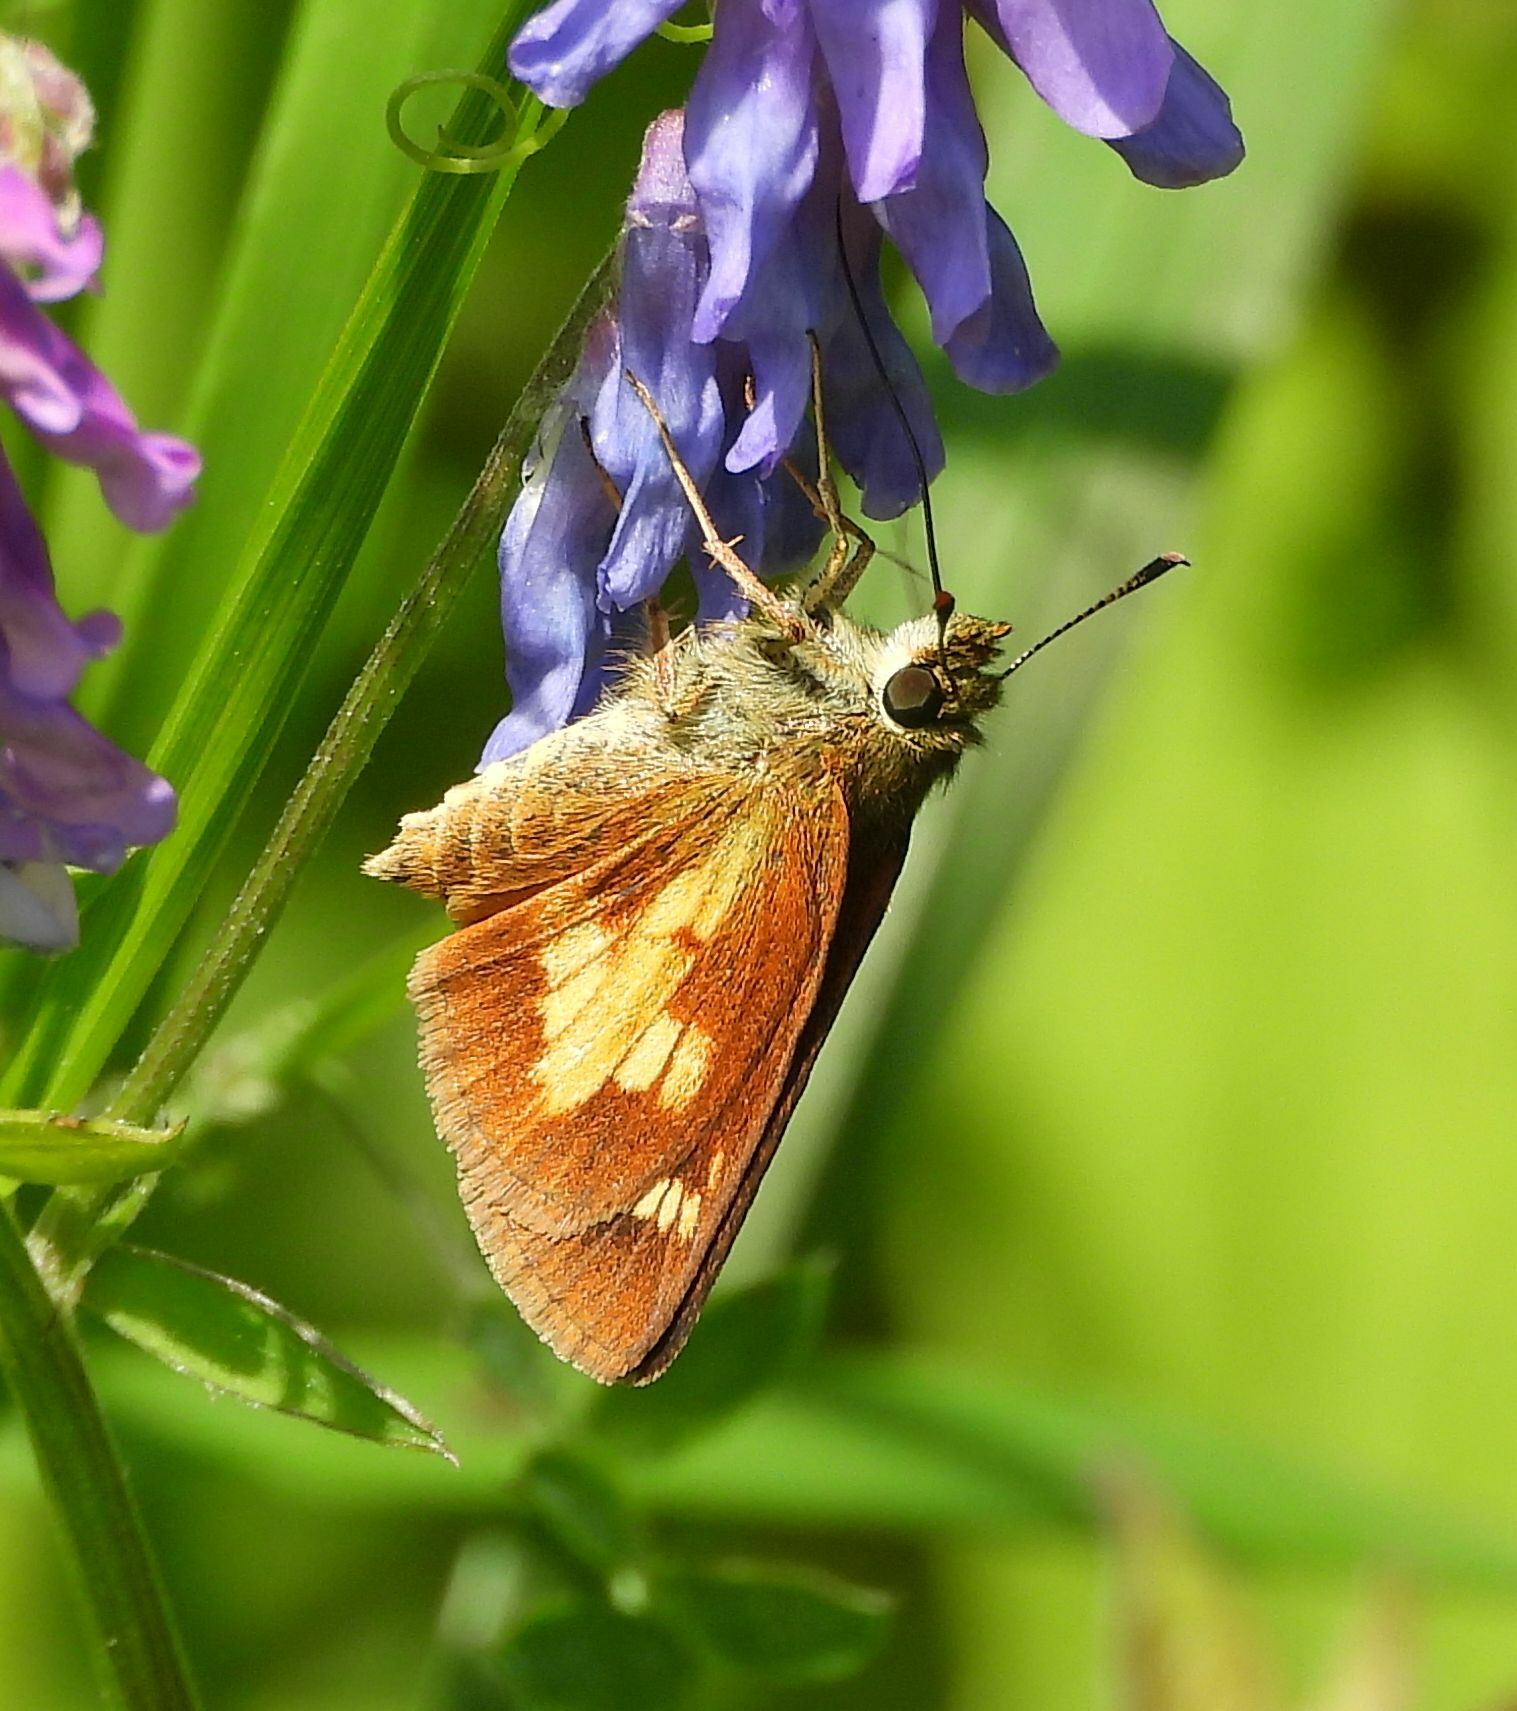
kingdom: Animalia
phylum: Arthropoda
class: Insecta
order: Lepidoptera
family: Hesperiidae
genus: Poanes
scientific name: Poanes massasoit
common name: Mulberrywing
